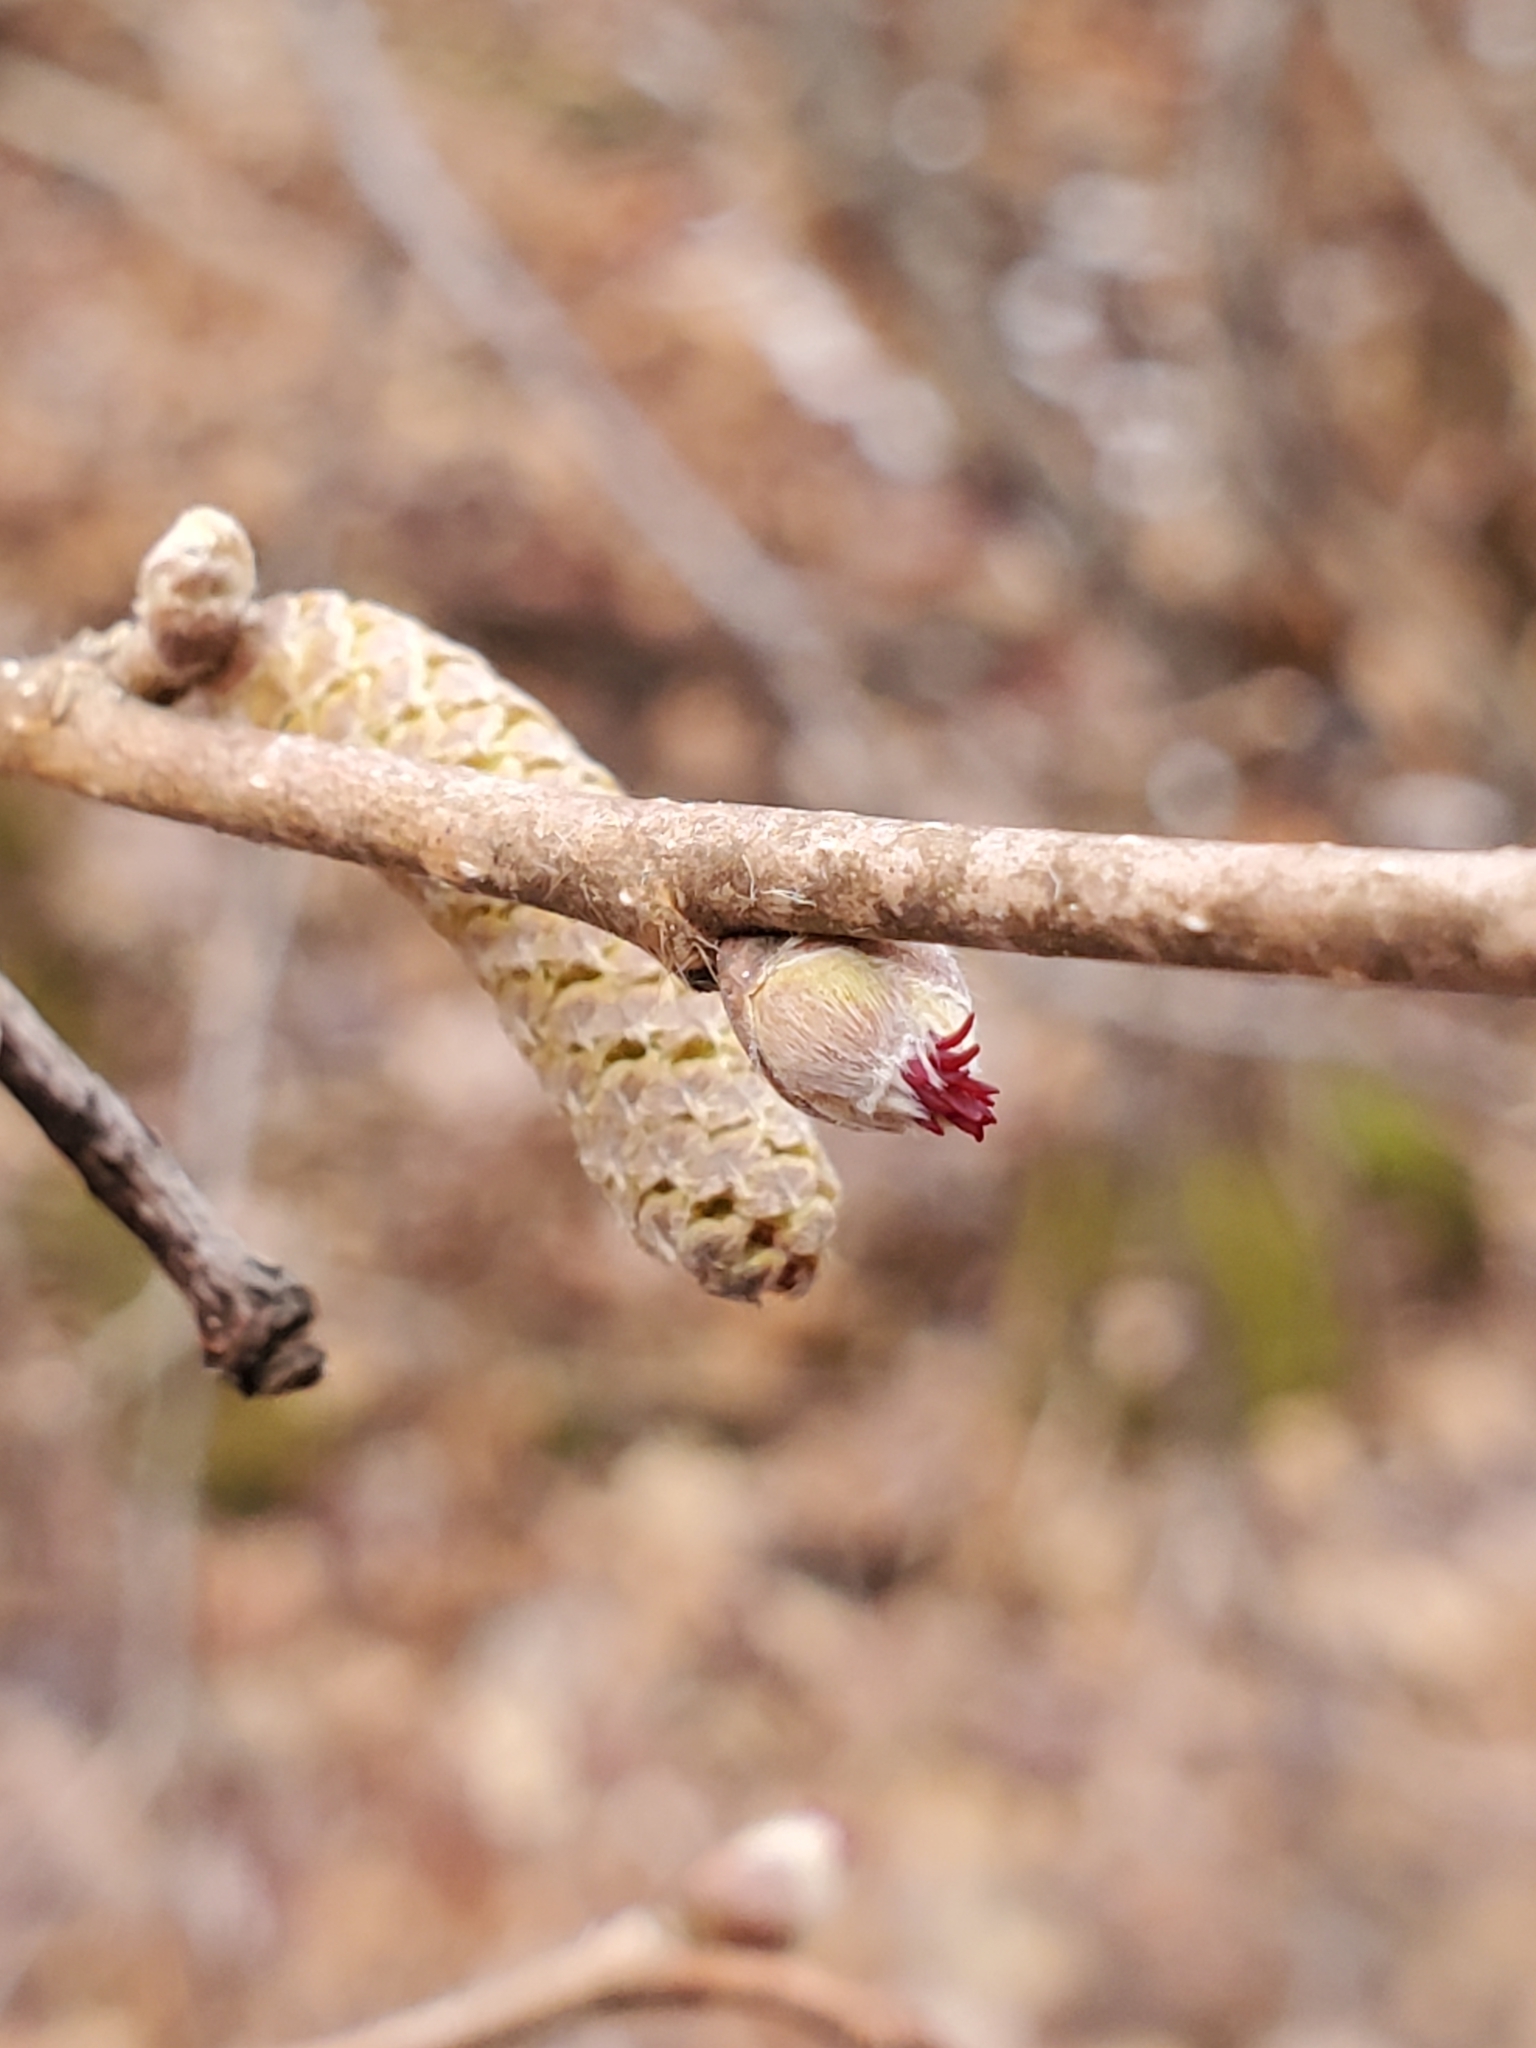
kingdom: Plantae
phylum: Tracheophyta
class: Magnoliopsida
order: Fagales
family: Betulaceae
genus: Corylus
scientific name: Corylus cornuta
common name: Beaked hazel
